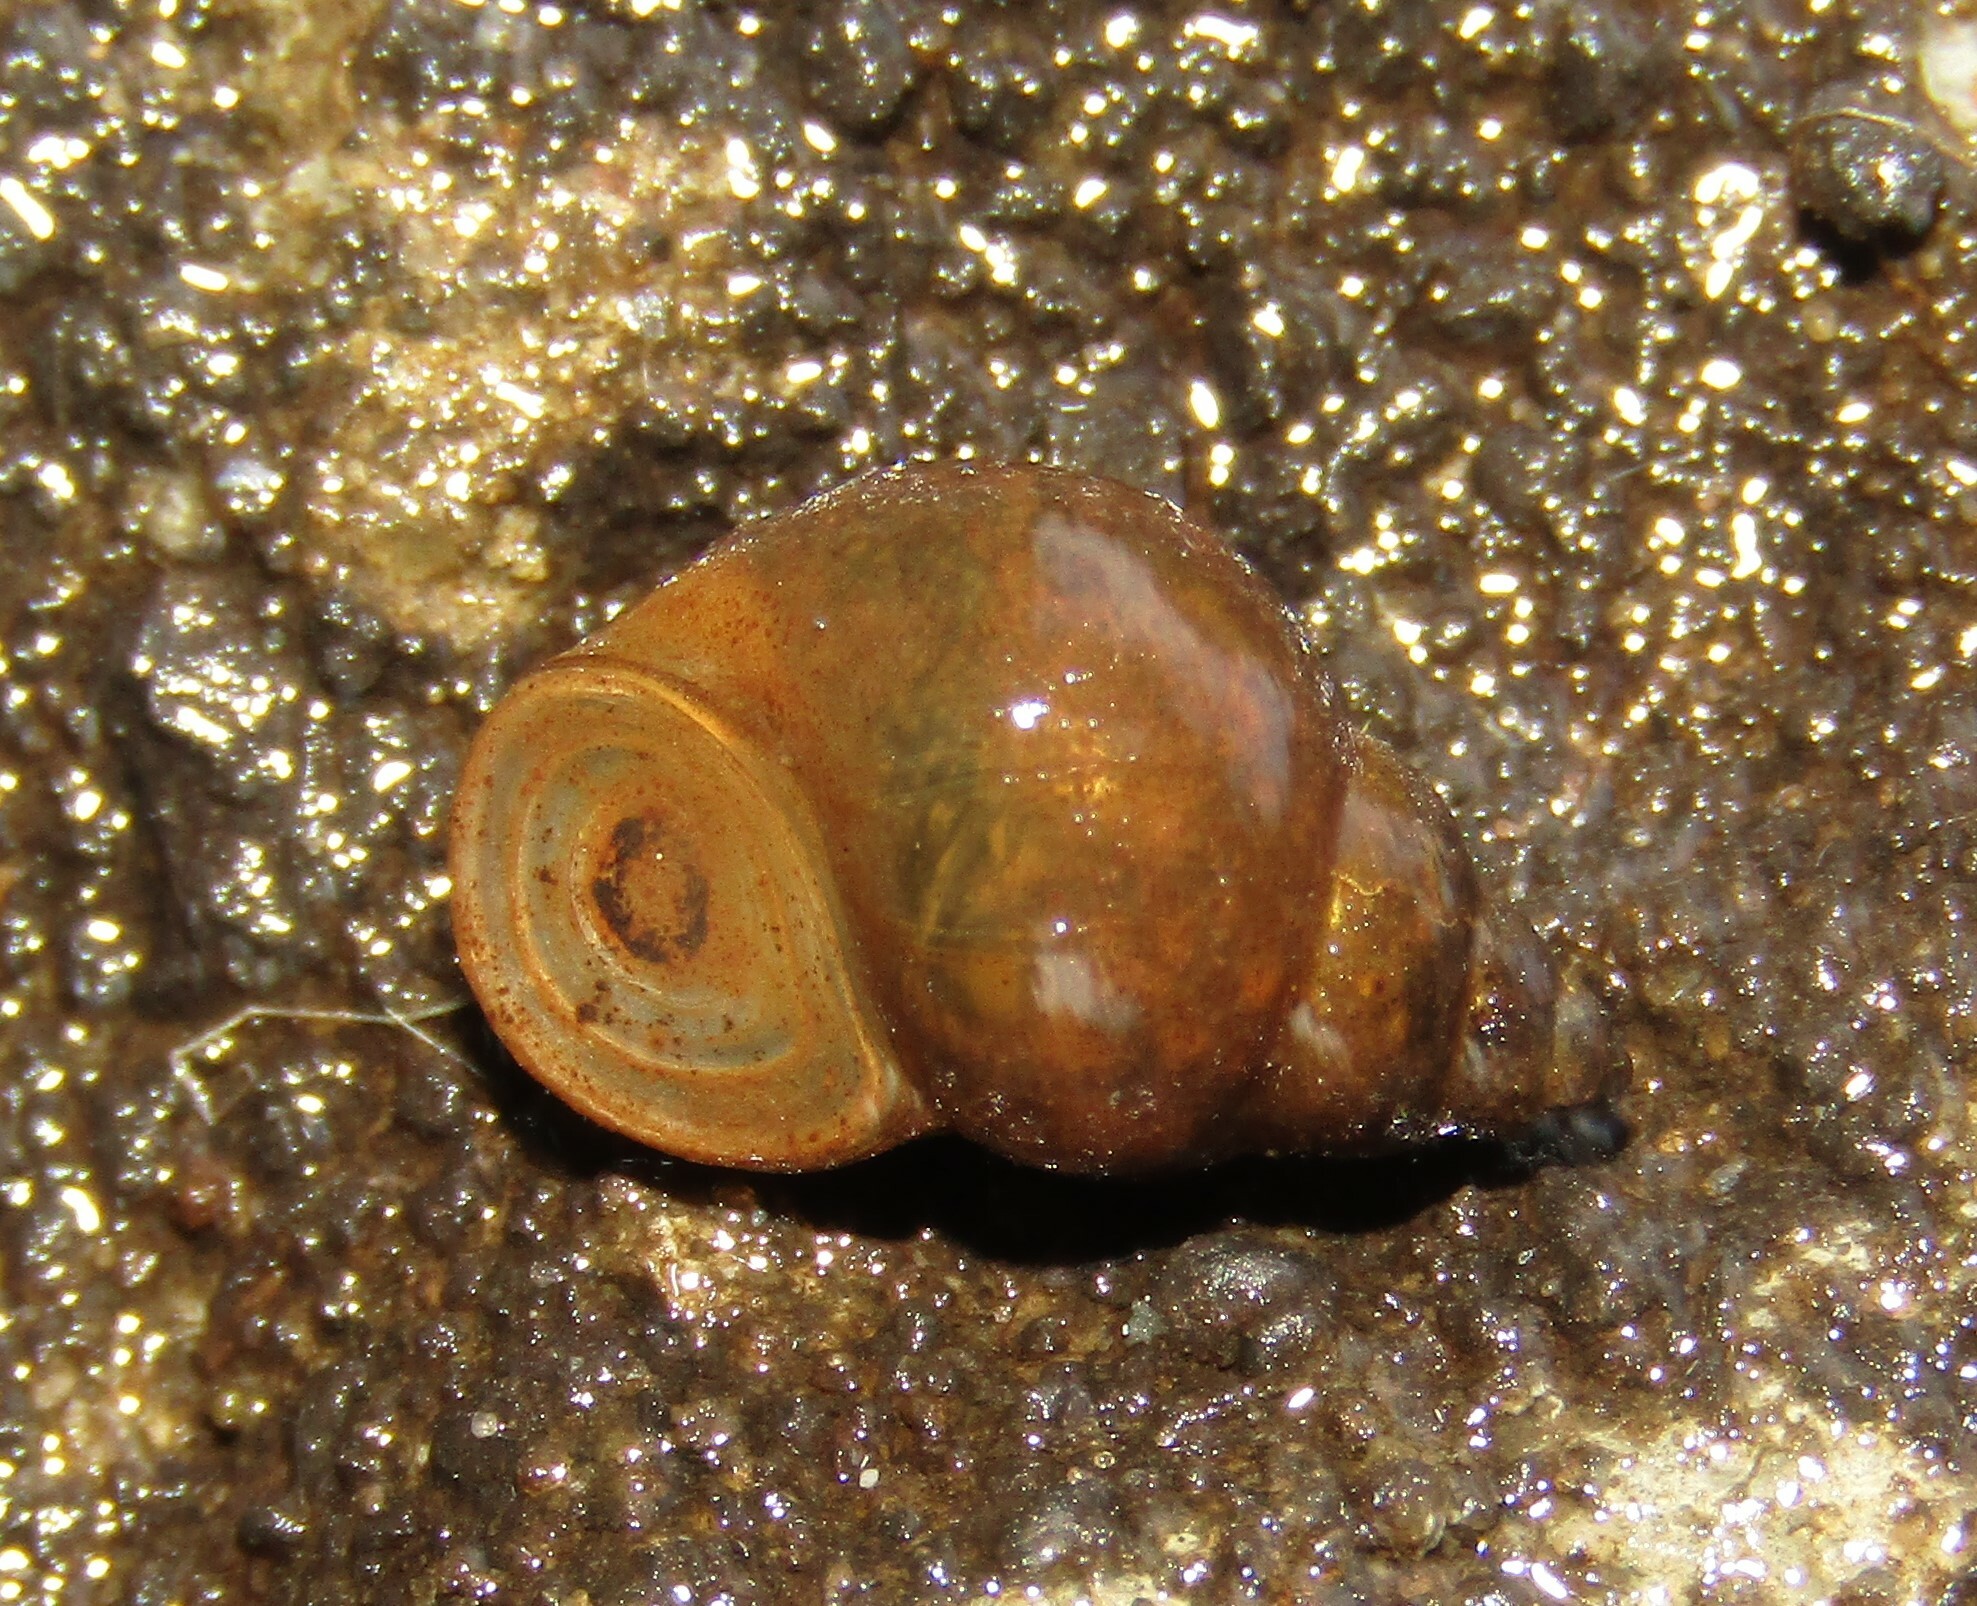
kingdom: Animalia
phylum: Mollusca
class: Gastropoda
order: Littorinimorpha
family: Bithyniidae
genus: Bithynia
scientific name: Bithynia tentaculata
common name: Common bithynia
